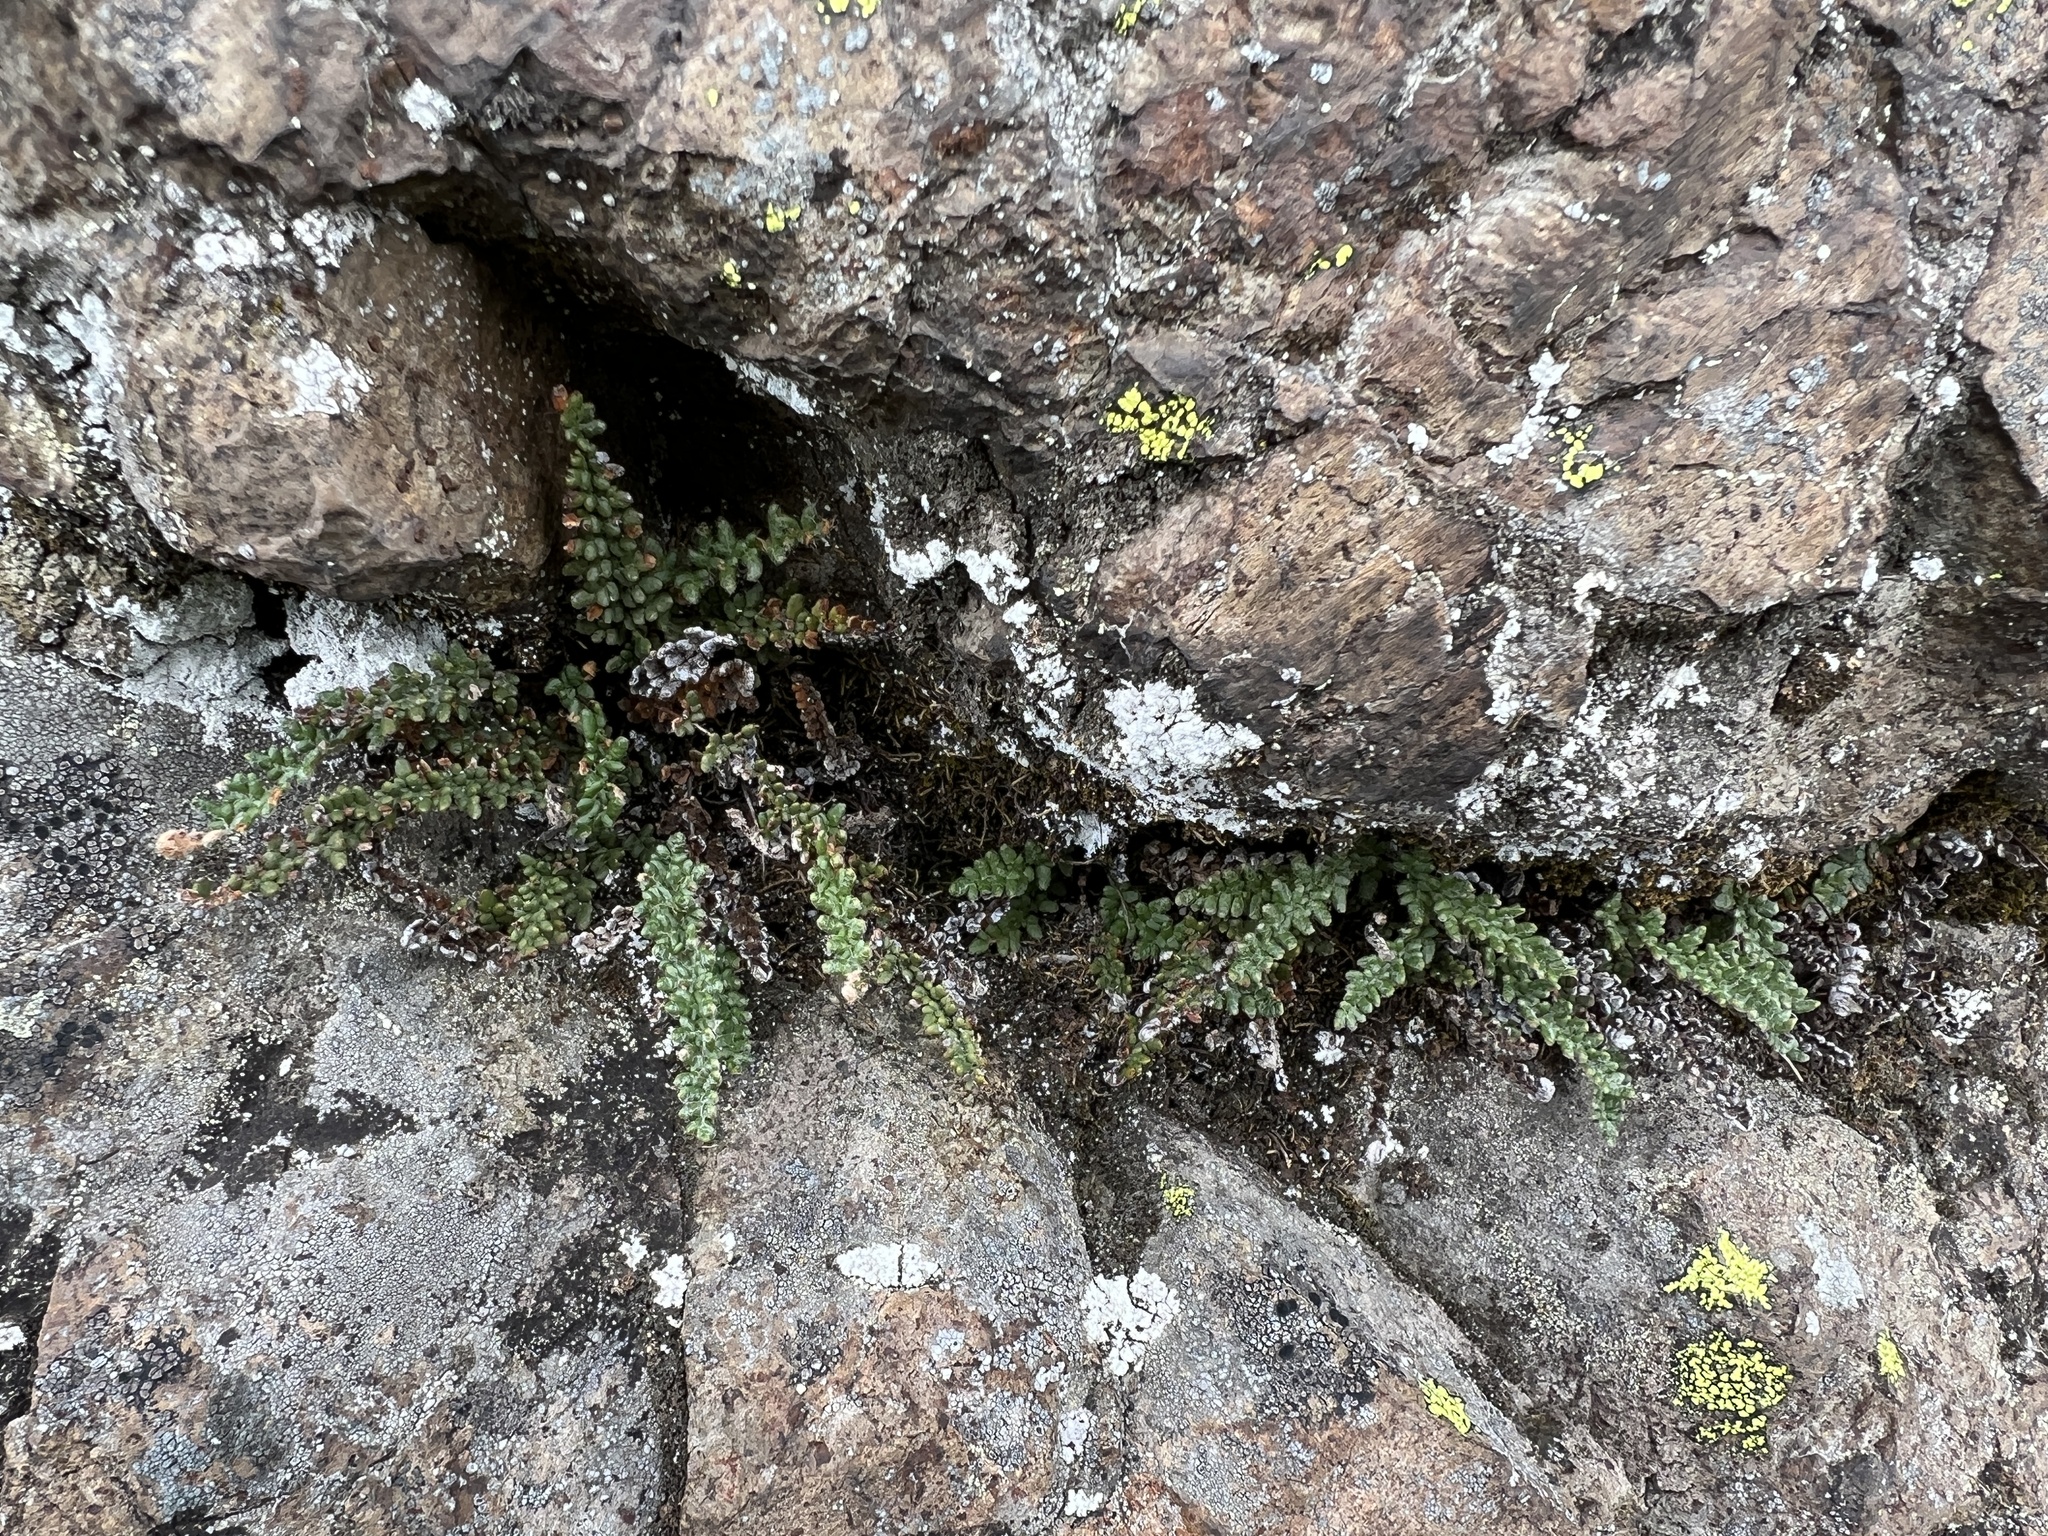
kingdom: Plantae
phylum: Tracheophyta
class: Polypodiopsida
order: Polypodiales
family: Pteridaceae
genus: Myriopteris
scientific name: Myriopteris gracillima
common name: Lace fern
